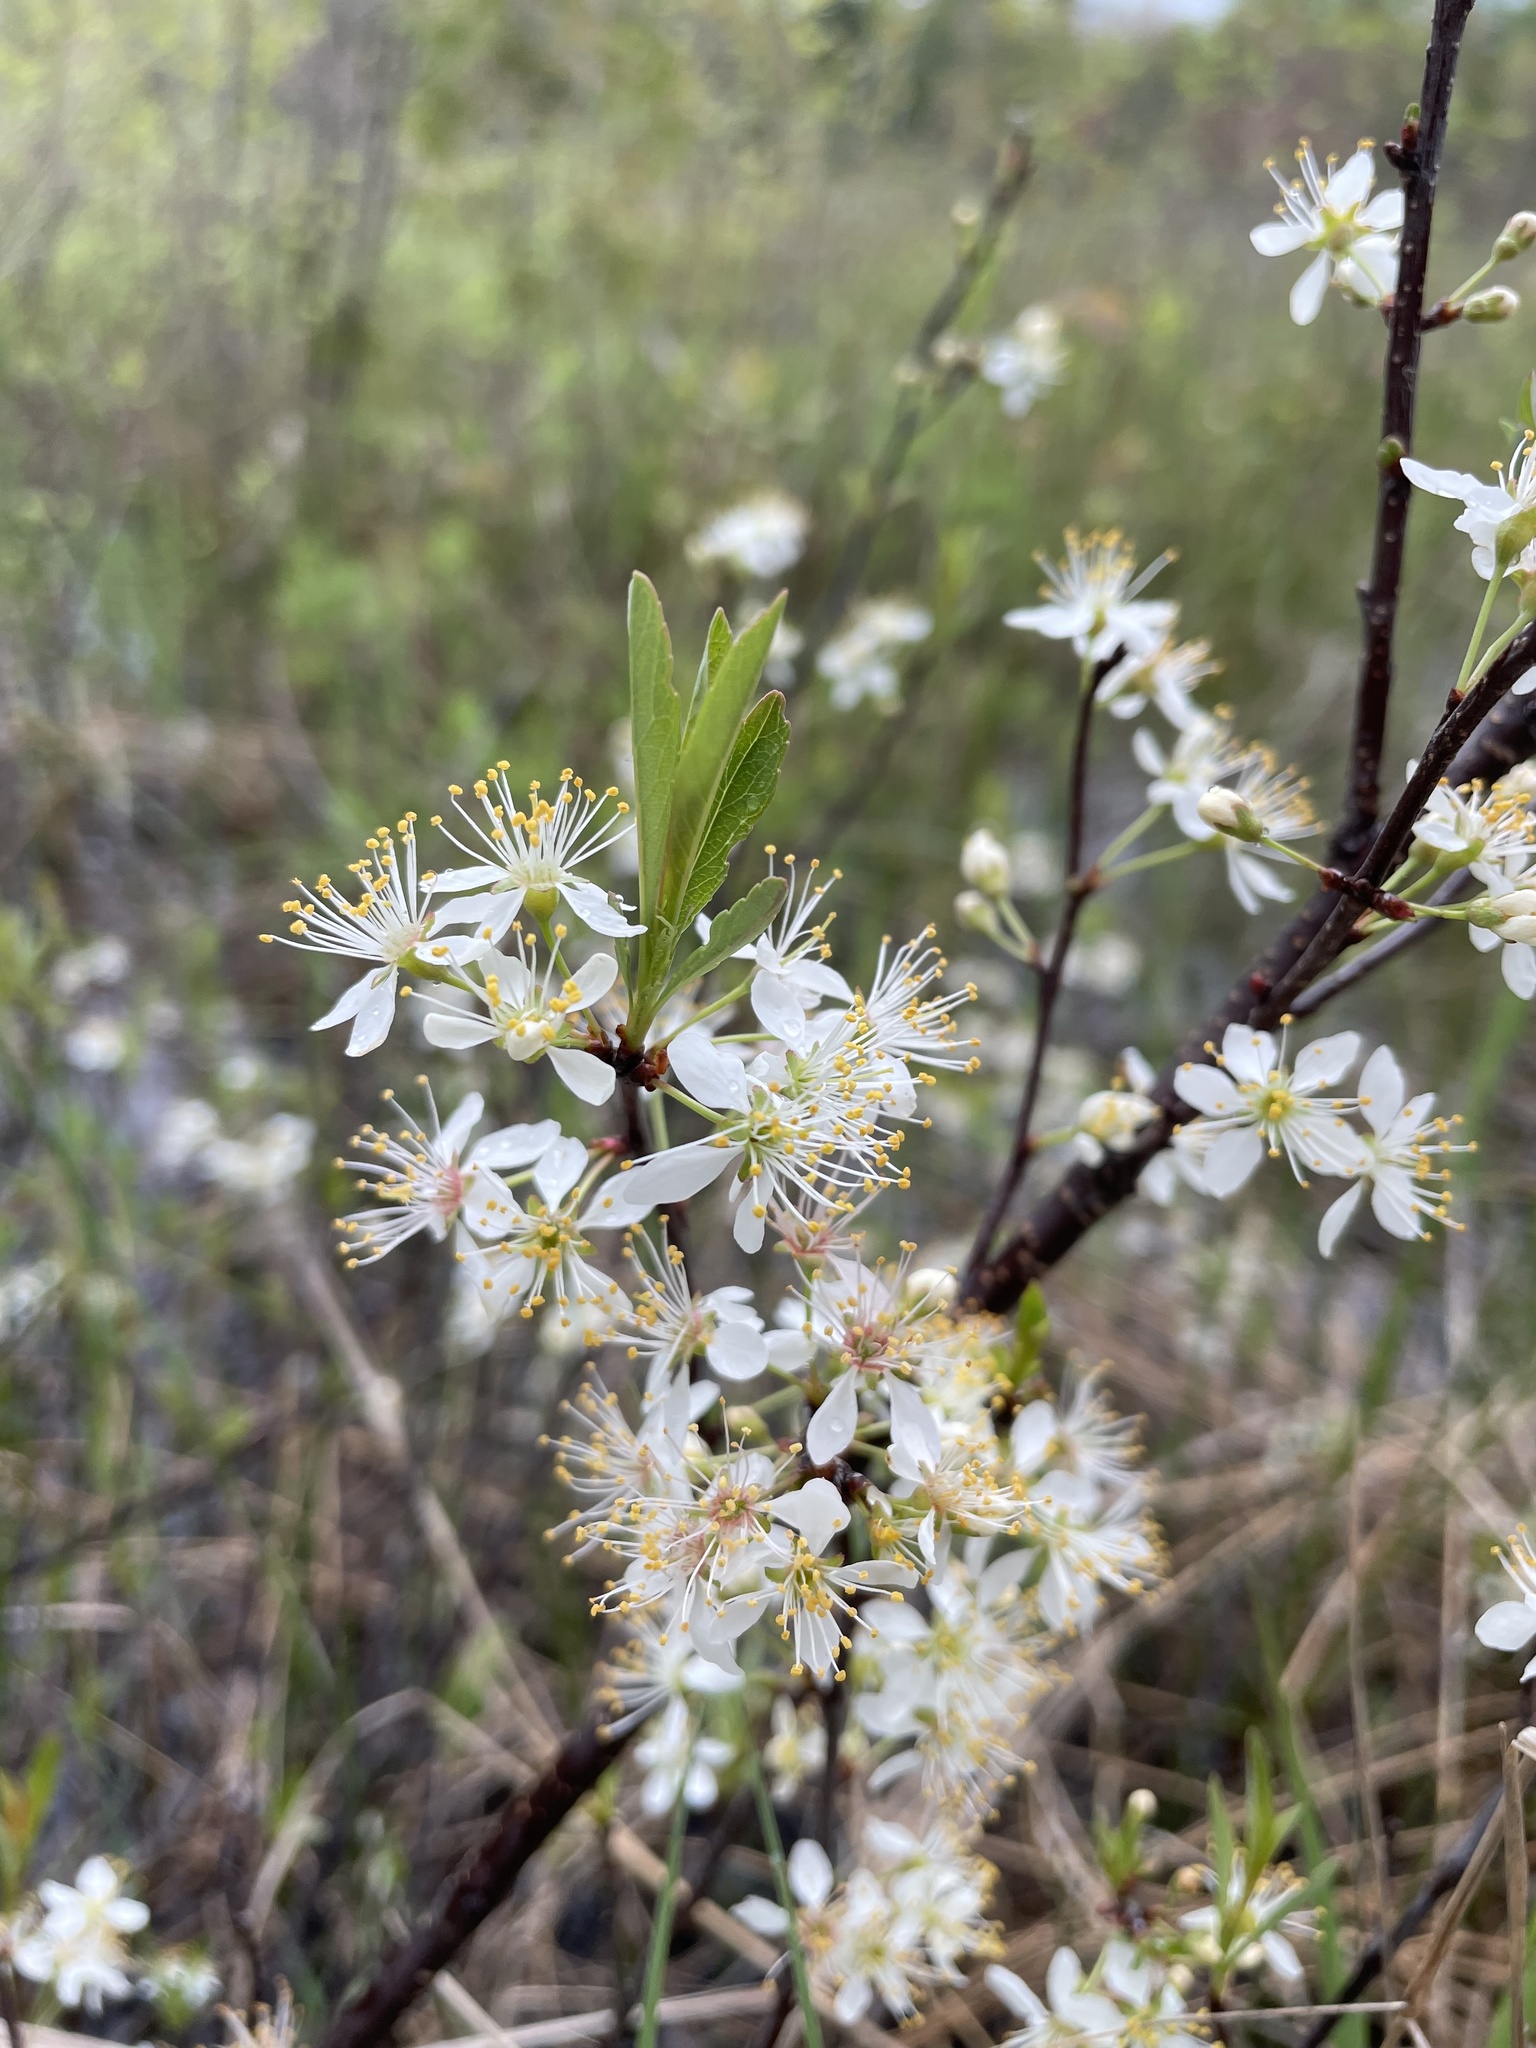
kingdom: Plantae
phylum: Tracheophyta
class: Magnoliopsida
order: Rosales
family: Rosaceae
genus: Prunus
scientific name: Prunus pumila
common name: Dwarf cherry
